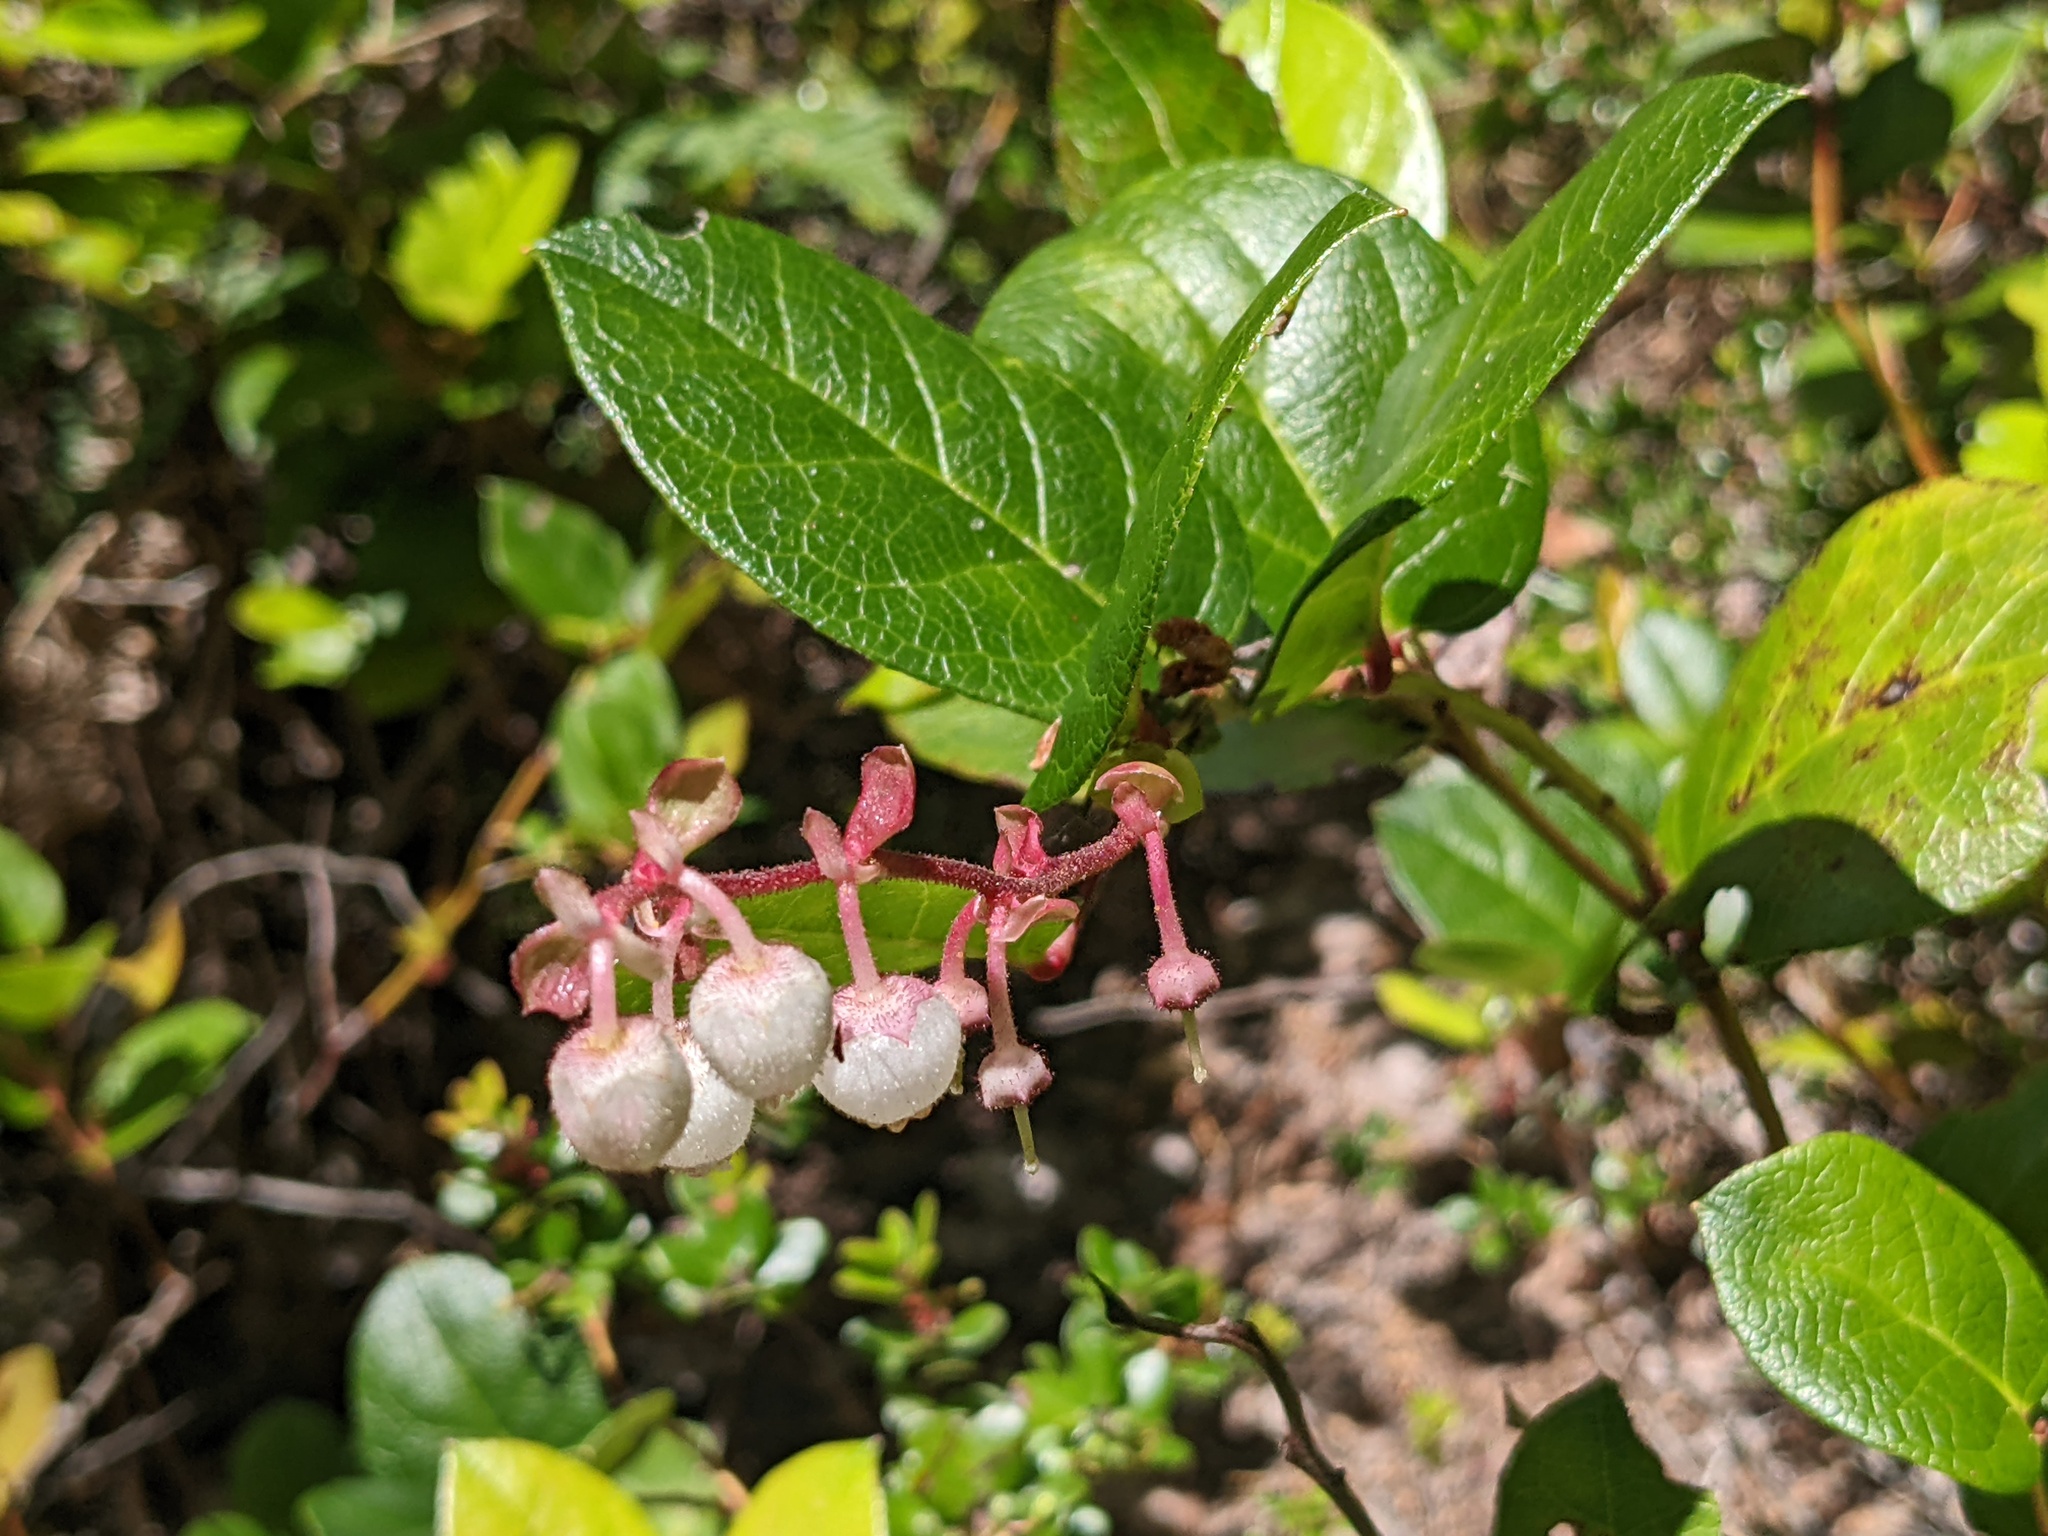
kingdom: Plantae
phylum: Tracheophyta
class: Magnoliopsida
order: Ericales
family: Ericaceae
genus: Gaultheria
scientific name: Gaultheria shallon
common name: Shallon
